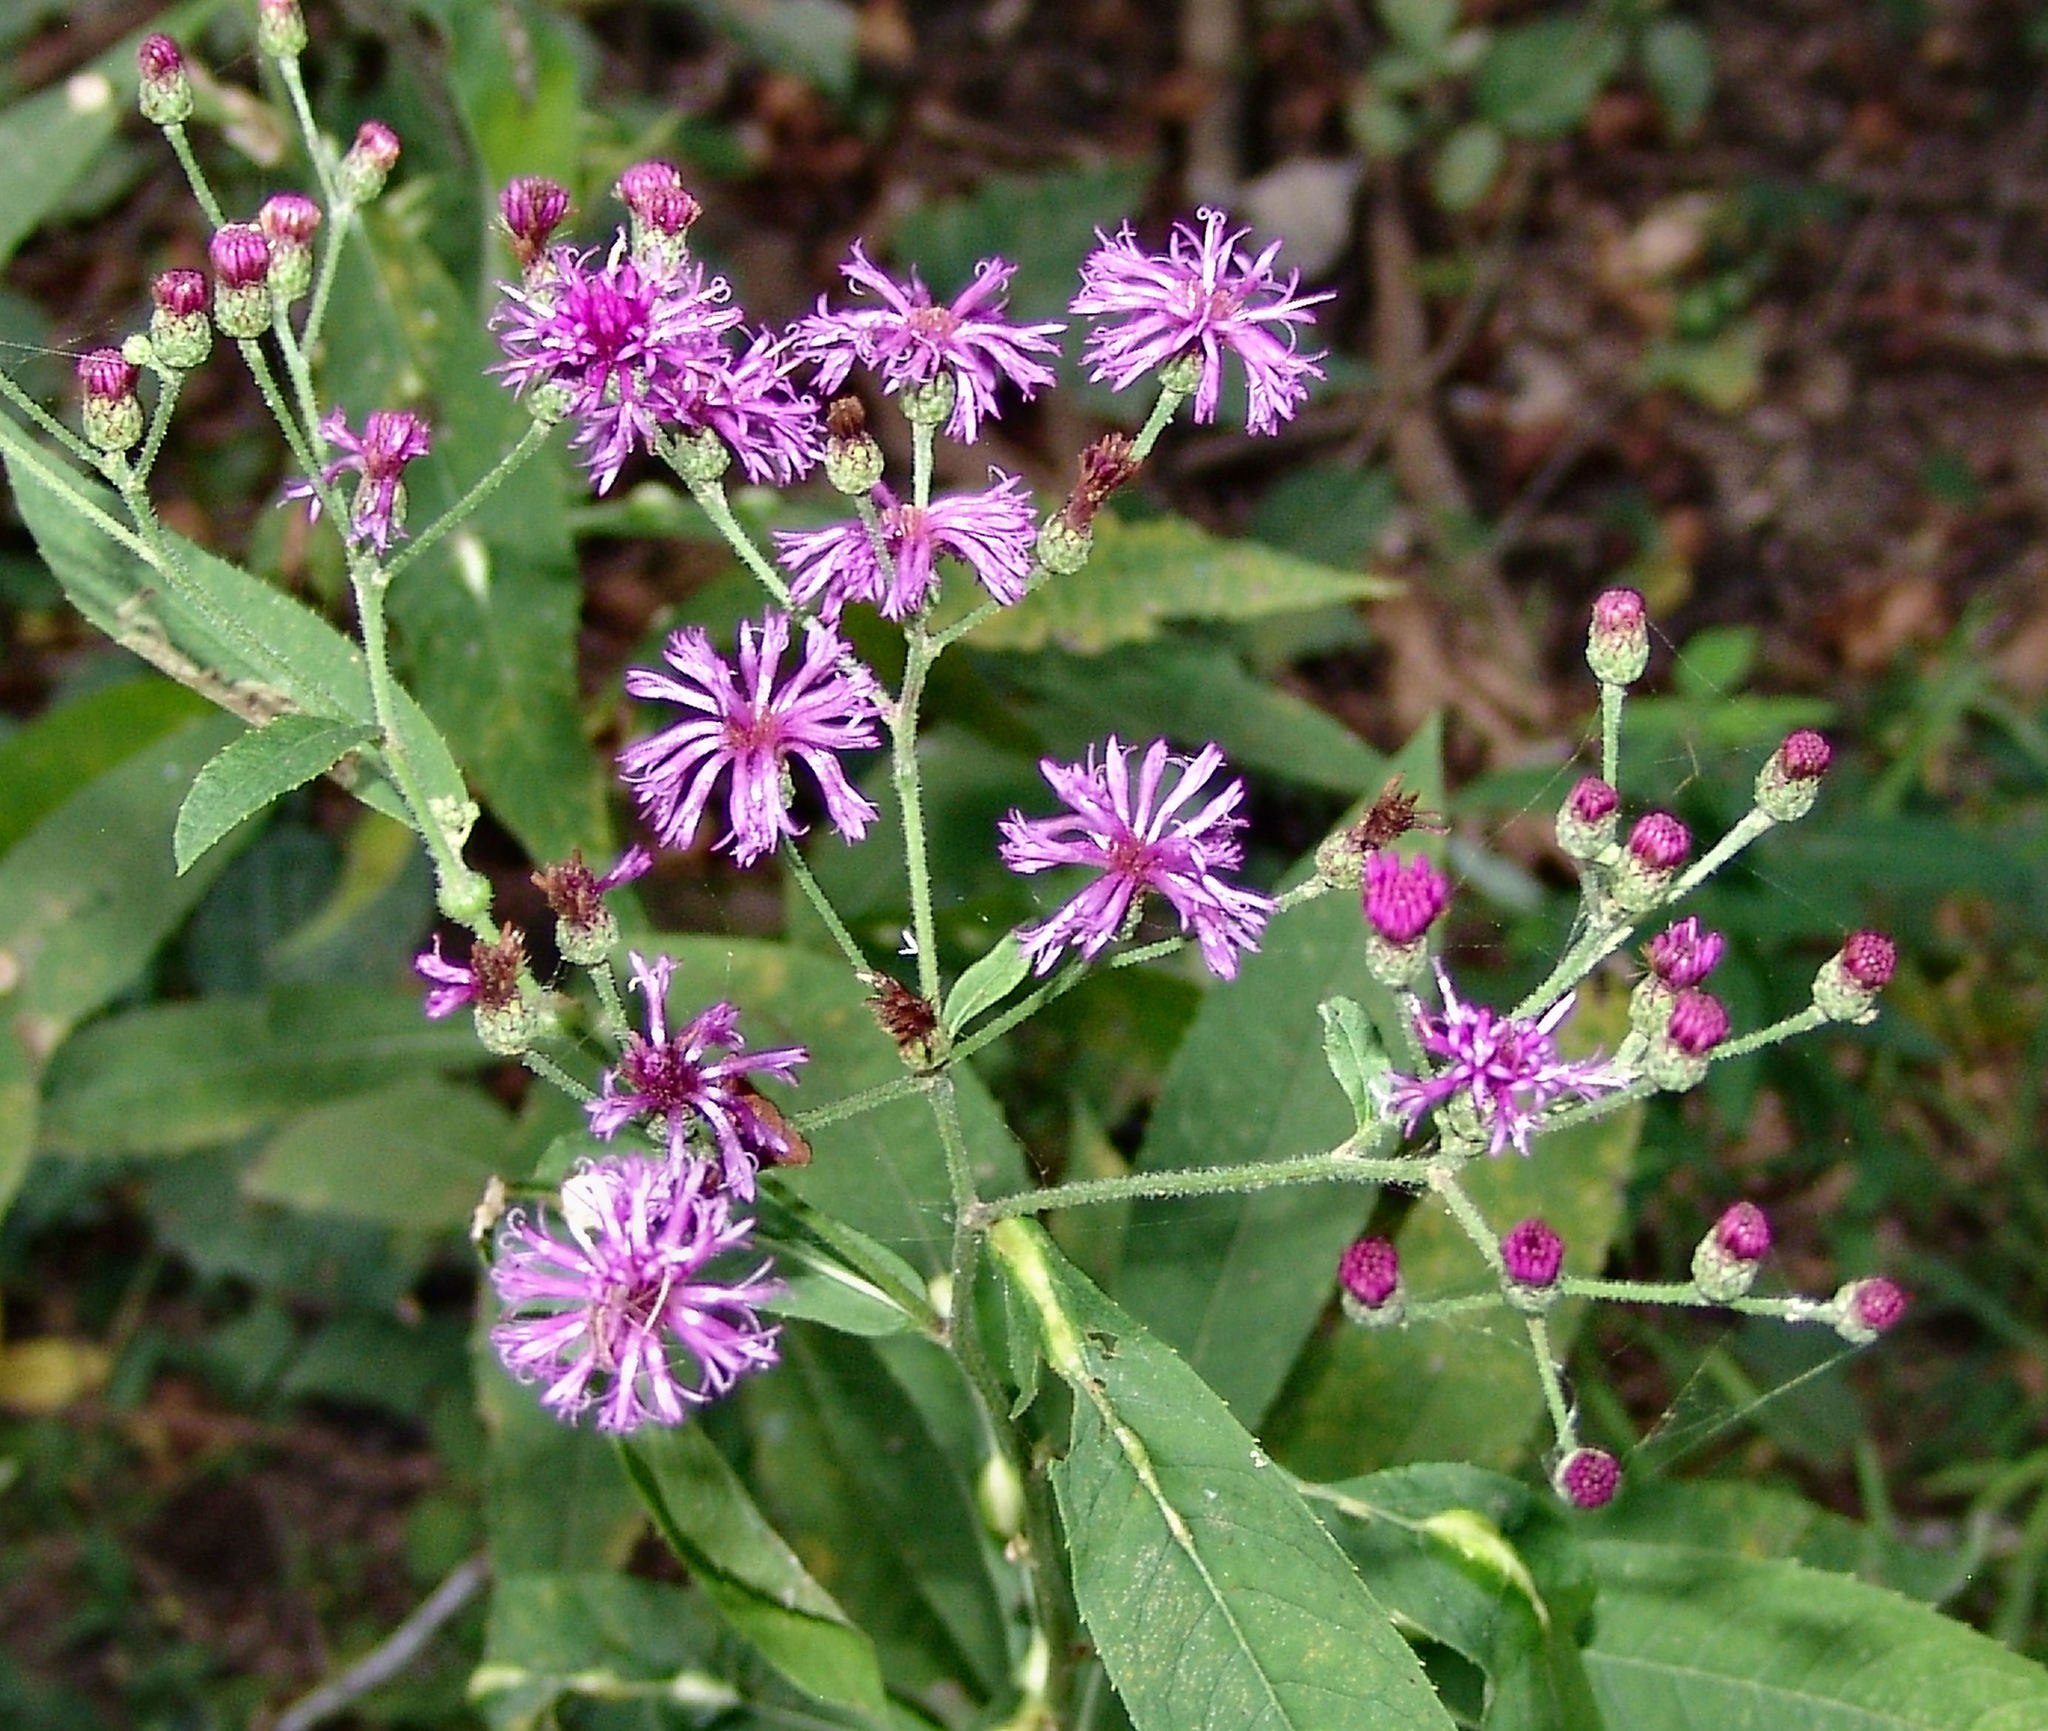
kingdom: Plantae
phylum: Tracheophyta
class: Magnoliopsida
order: Asterales
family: Asteraceae
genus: Vernonia
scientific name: Vernonia gigantea
